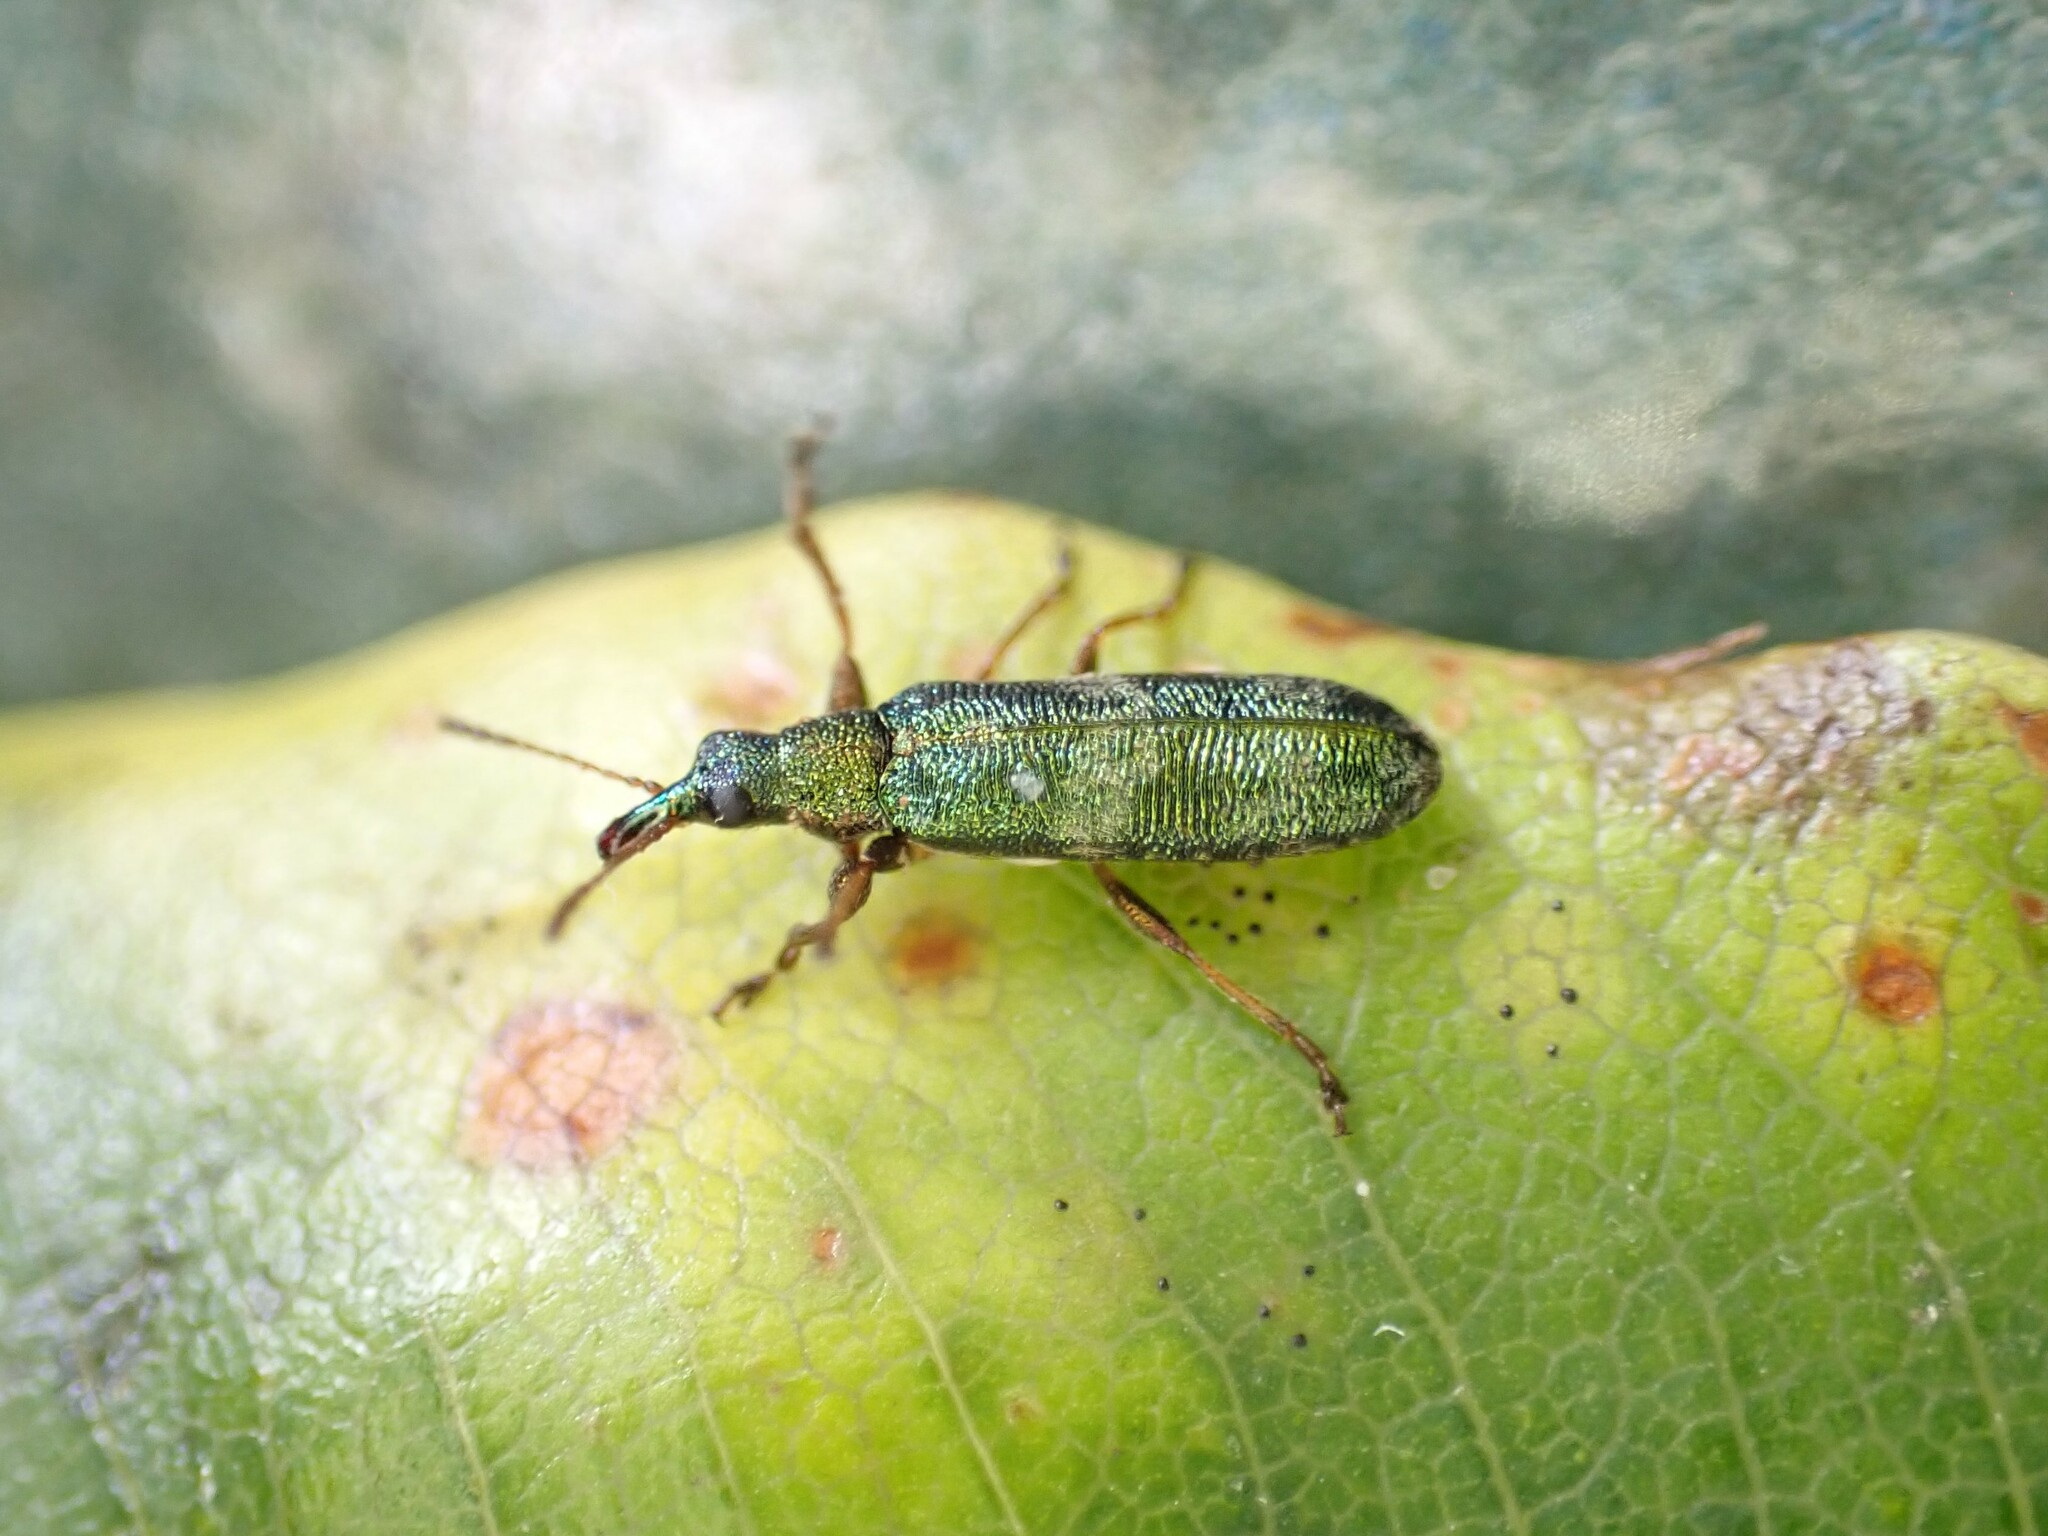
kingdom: Animalia
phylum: Arthropoda
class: Insecta
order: Coleoptera
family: Belidae
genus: Rhicnobelus
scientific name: Rhicnobelus
